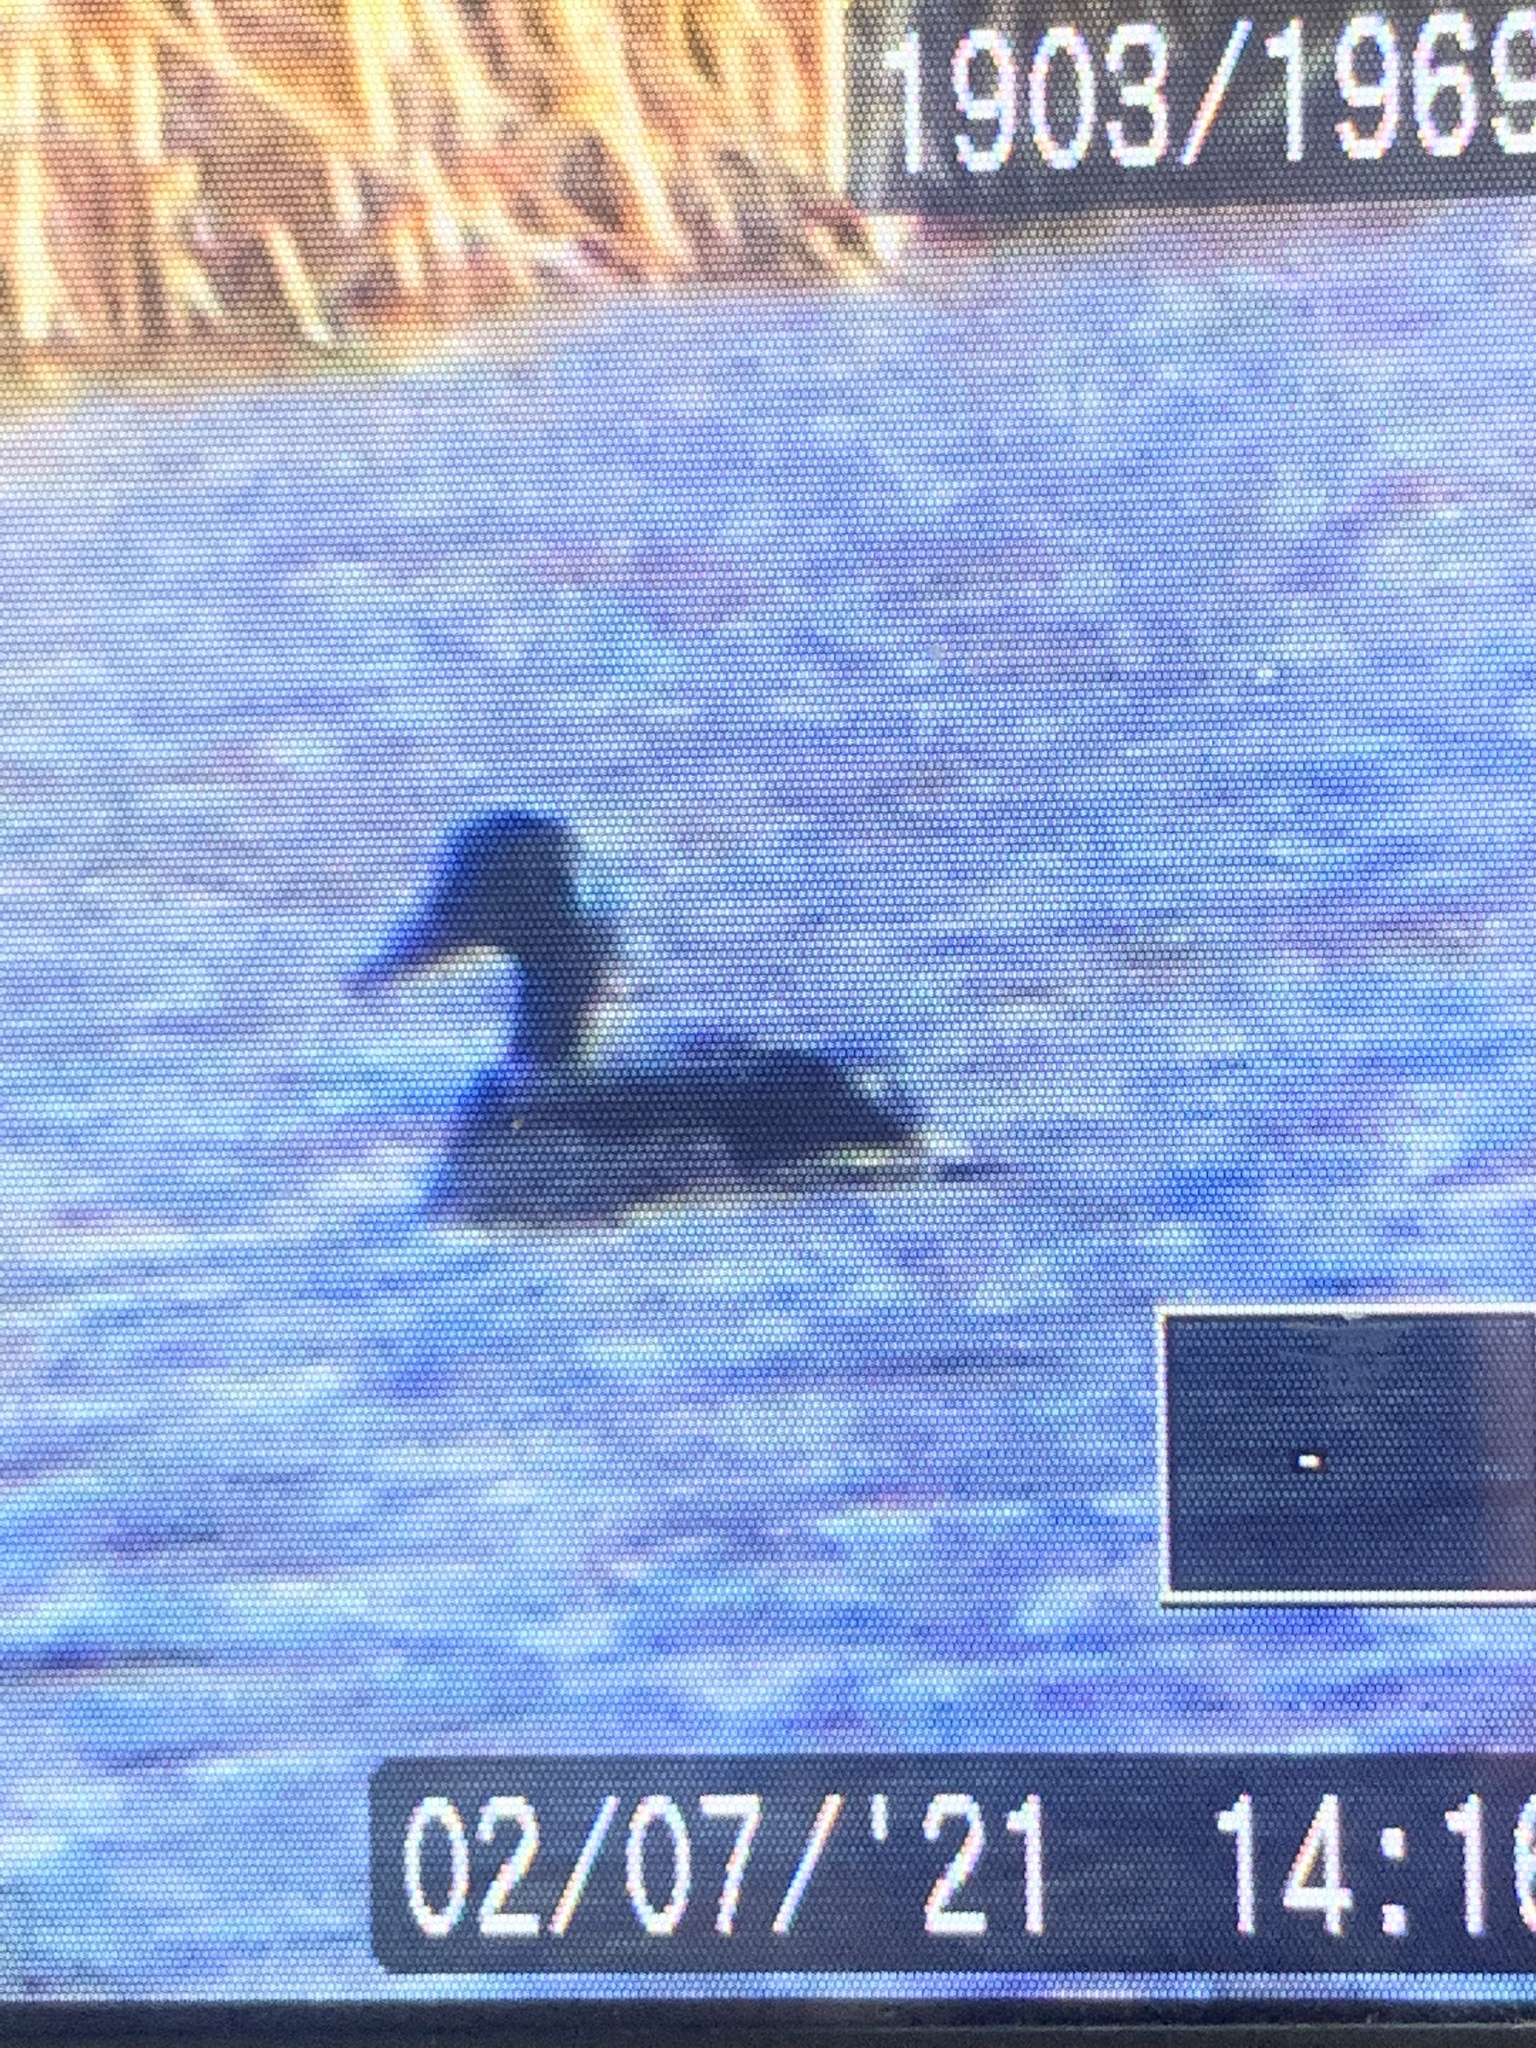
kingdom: Animalia
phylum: Chordata
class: Aves
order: Anseriformes
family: Anatidae
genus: Anas
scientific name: Anas platyrhynchos
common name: Mallard
